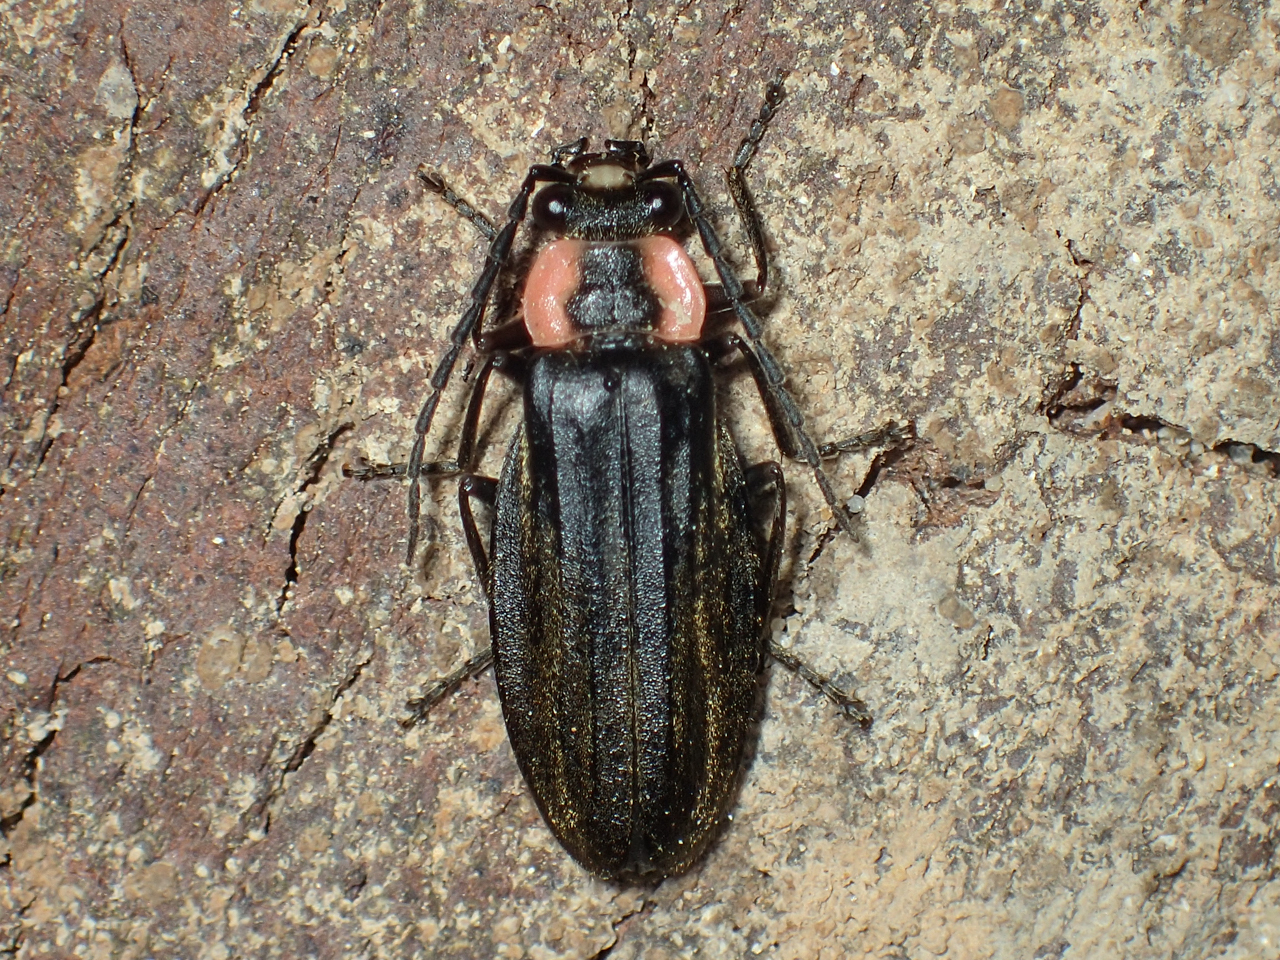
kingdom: Animalia
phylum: Arthropoda
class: Insecta
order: Coleoptera
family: Cantharidae
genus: Podabrus
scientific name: Podabrus tricostatus
